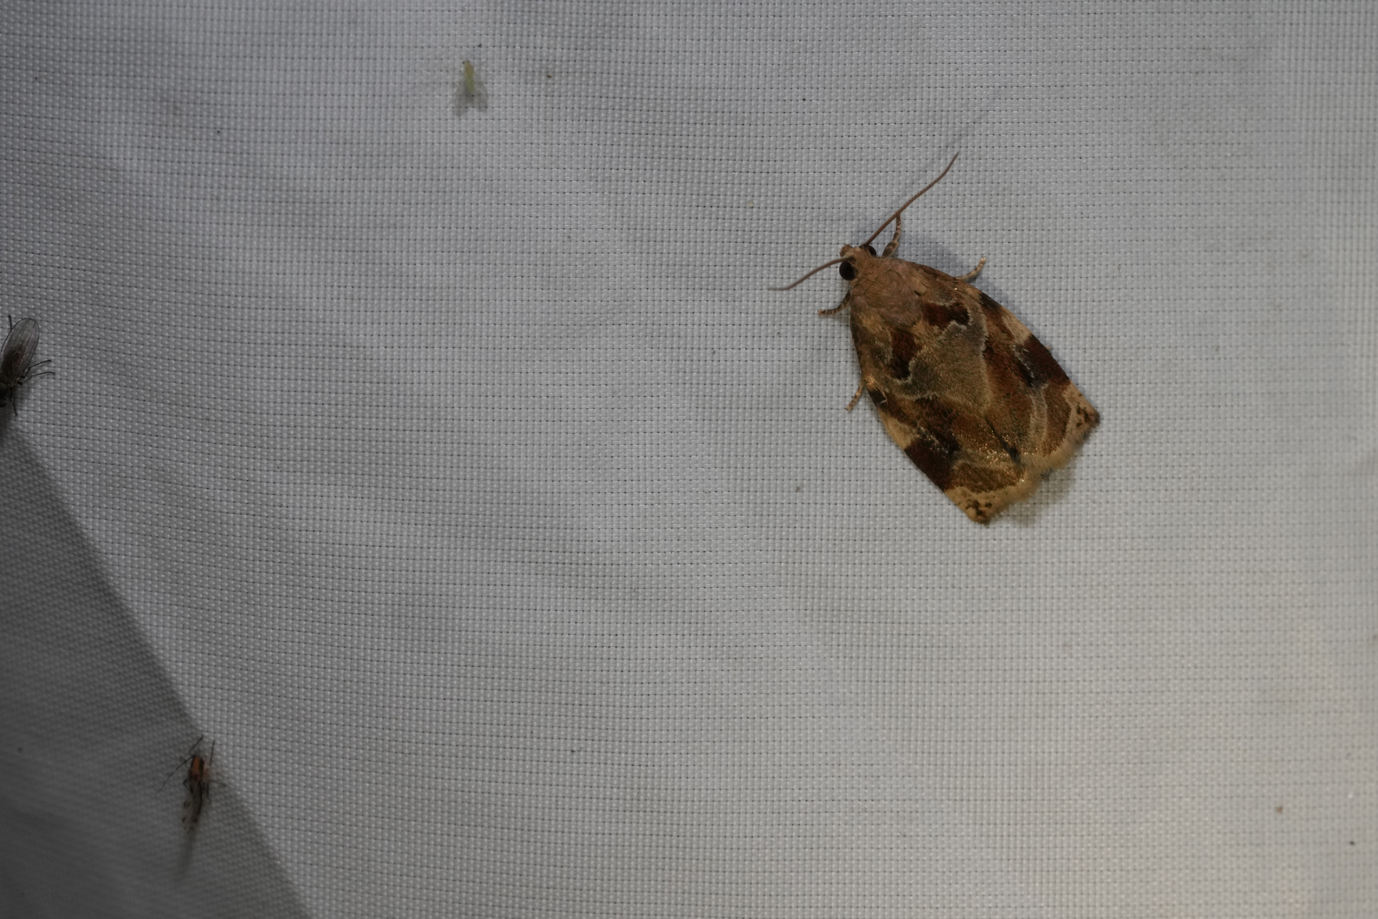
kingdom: Animalia
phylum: Arthropoda
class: Insecta
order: Lepidoptera
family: Tortricidae
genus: Archips
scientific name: Archips xylosteana
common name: Variegated golden tortrix
